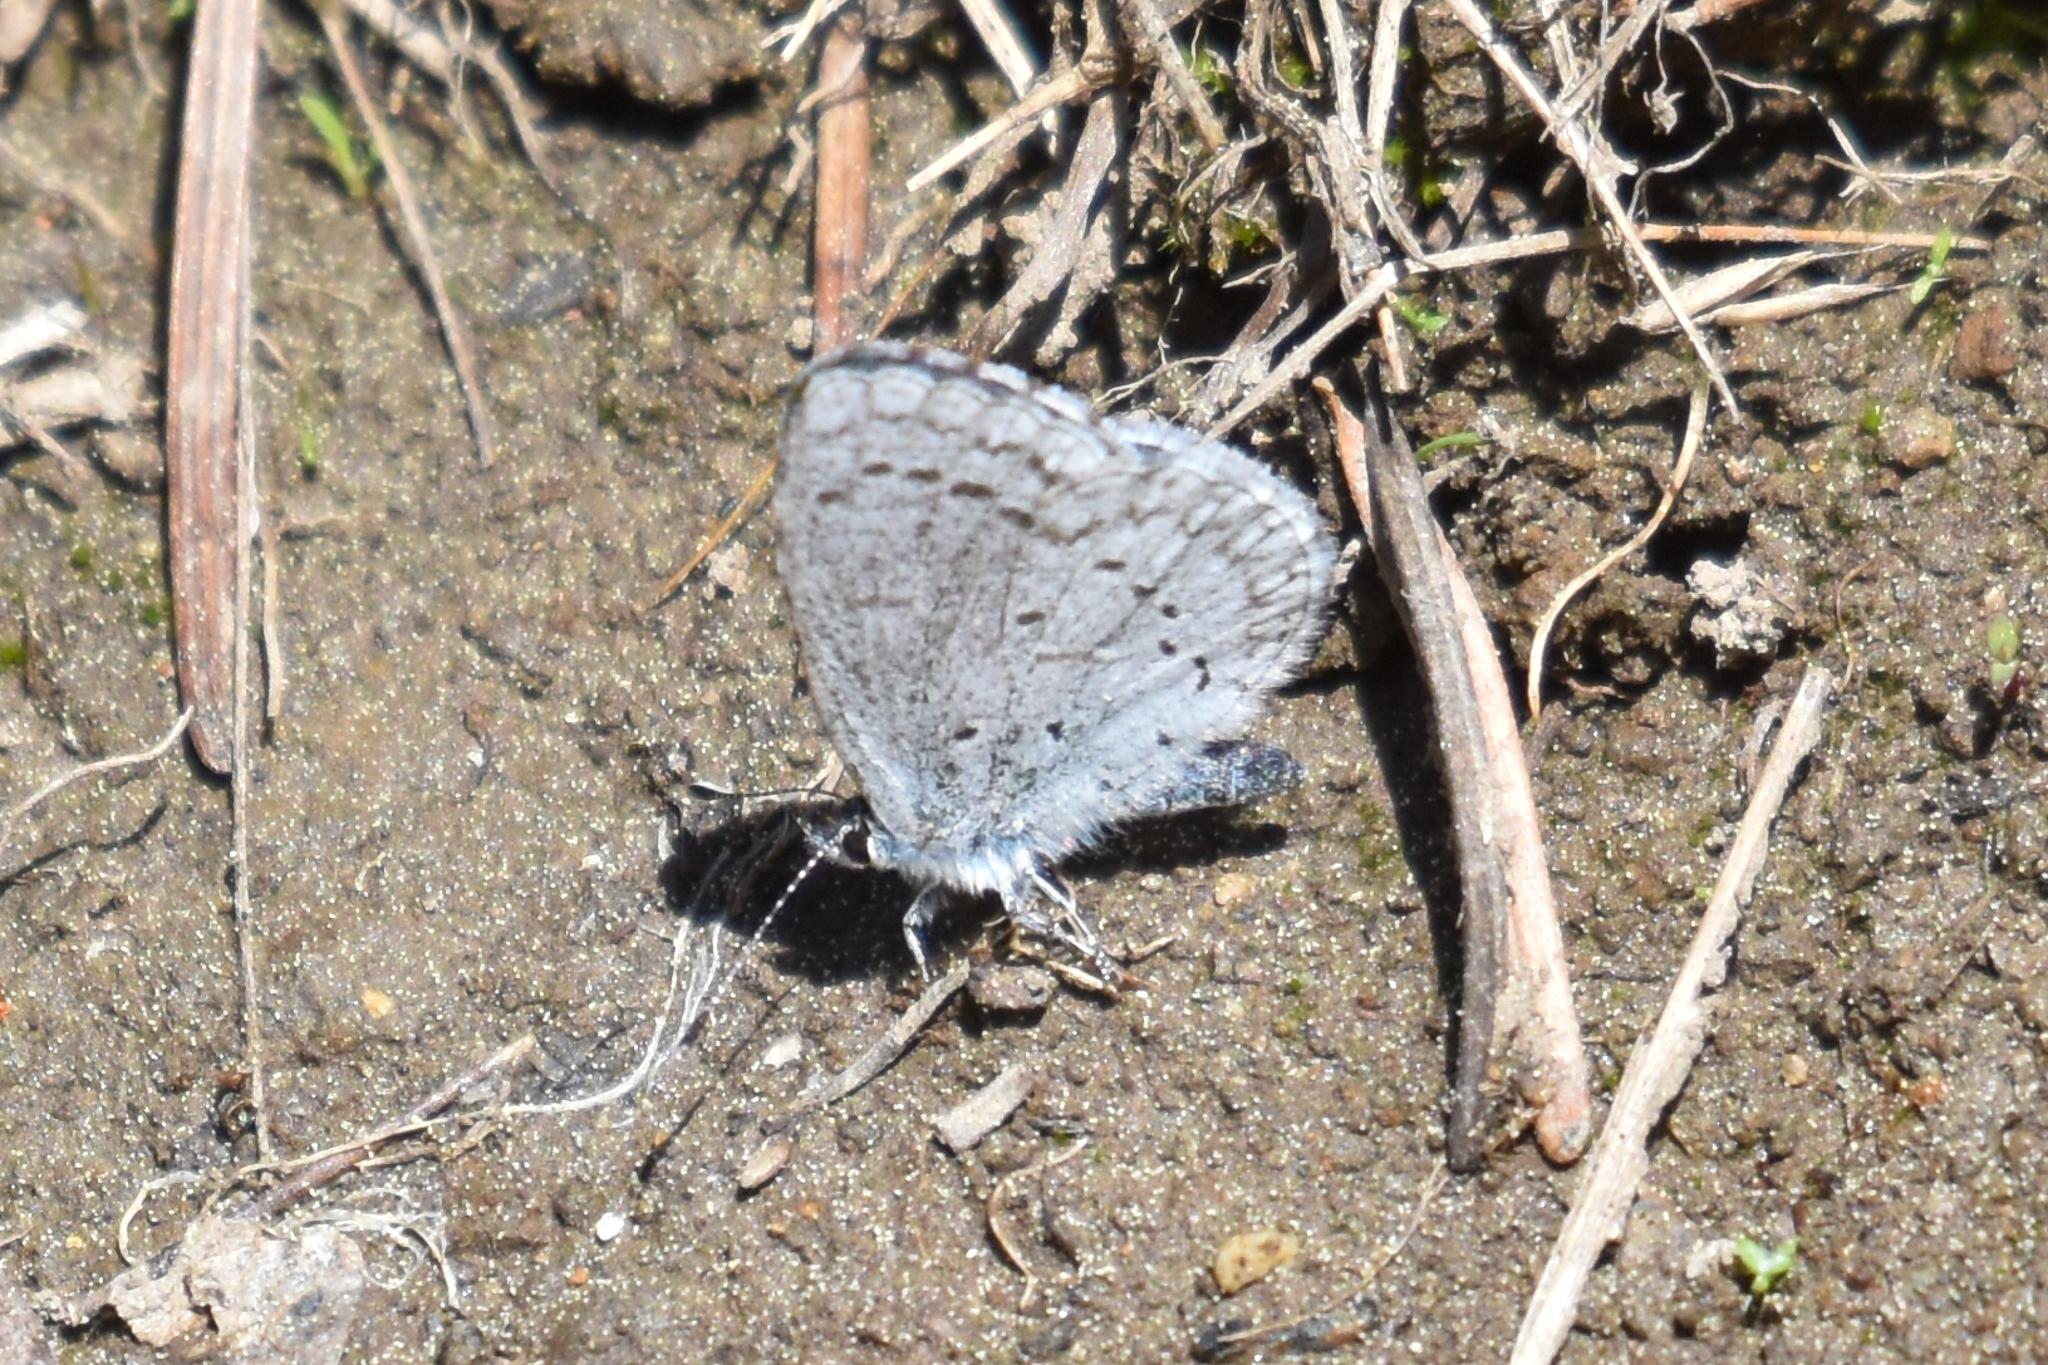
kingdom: Animalia
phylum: Arthropoda
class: Insecta
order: Lepidoptera
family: Lycaenidae
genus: Celastrina
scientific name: Celastrina ladon
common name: Spring azure
